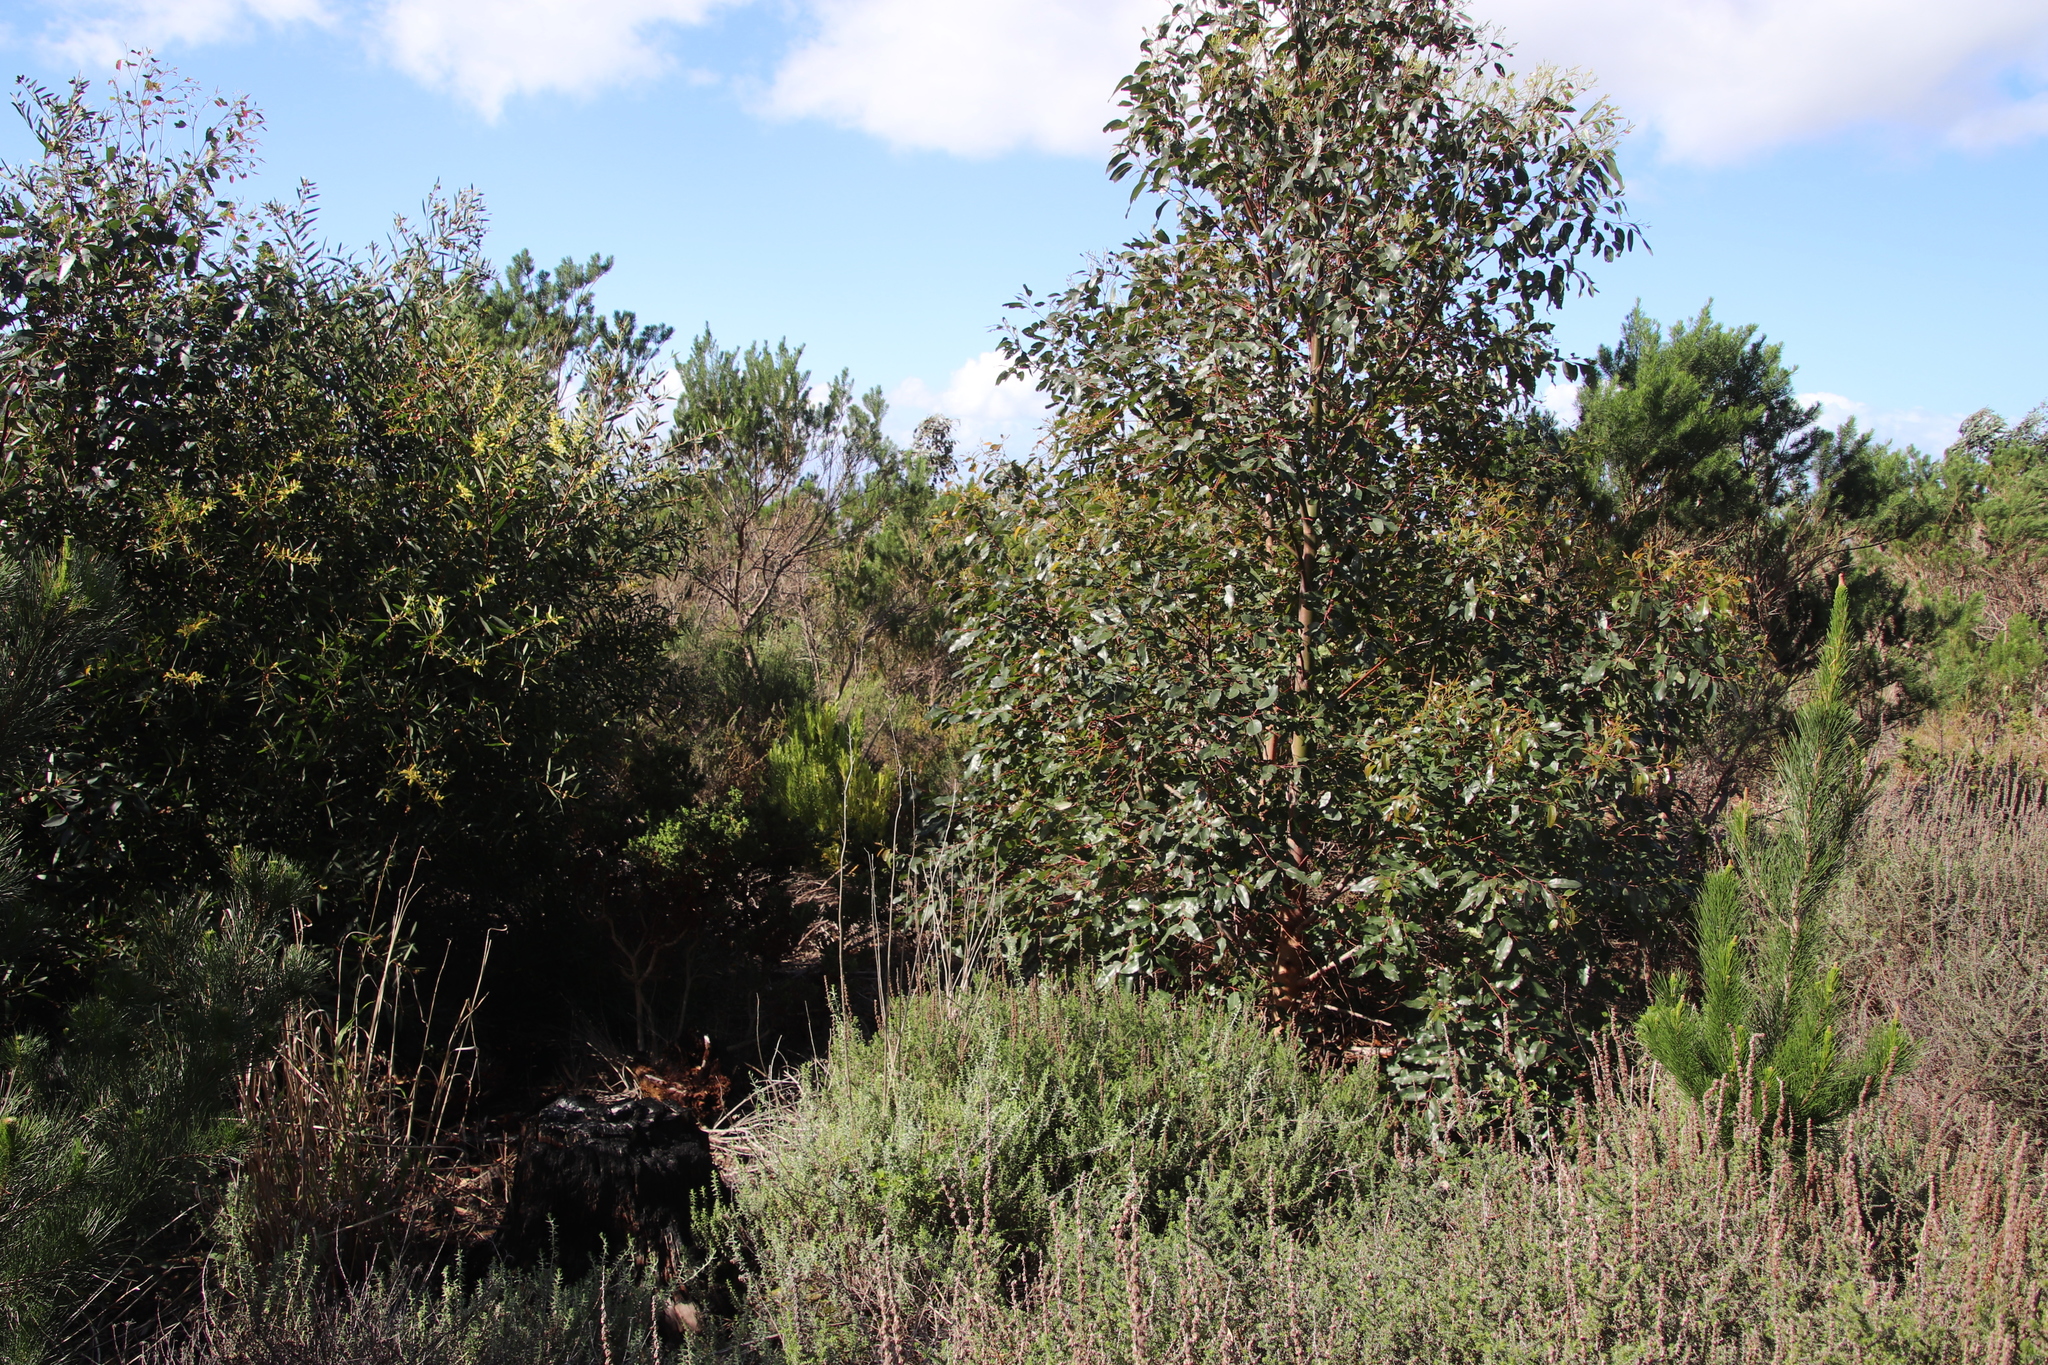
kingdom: Plantae
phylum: Tracheophyta
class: Magnoliopsida
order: Proteales
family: Proteaceae
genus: Leucadendron
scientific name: Leucadendron xanthoconus
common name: Sickle-leaf conebush
